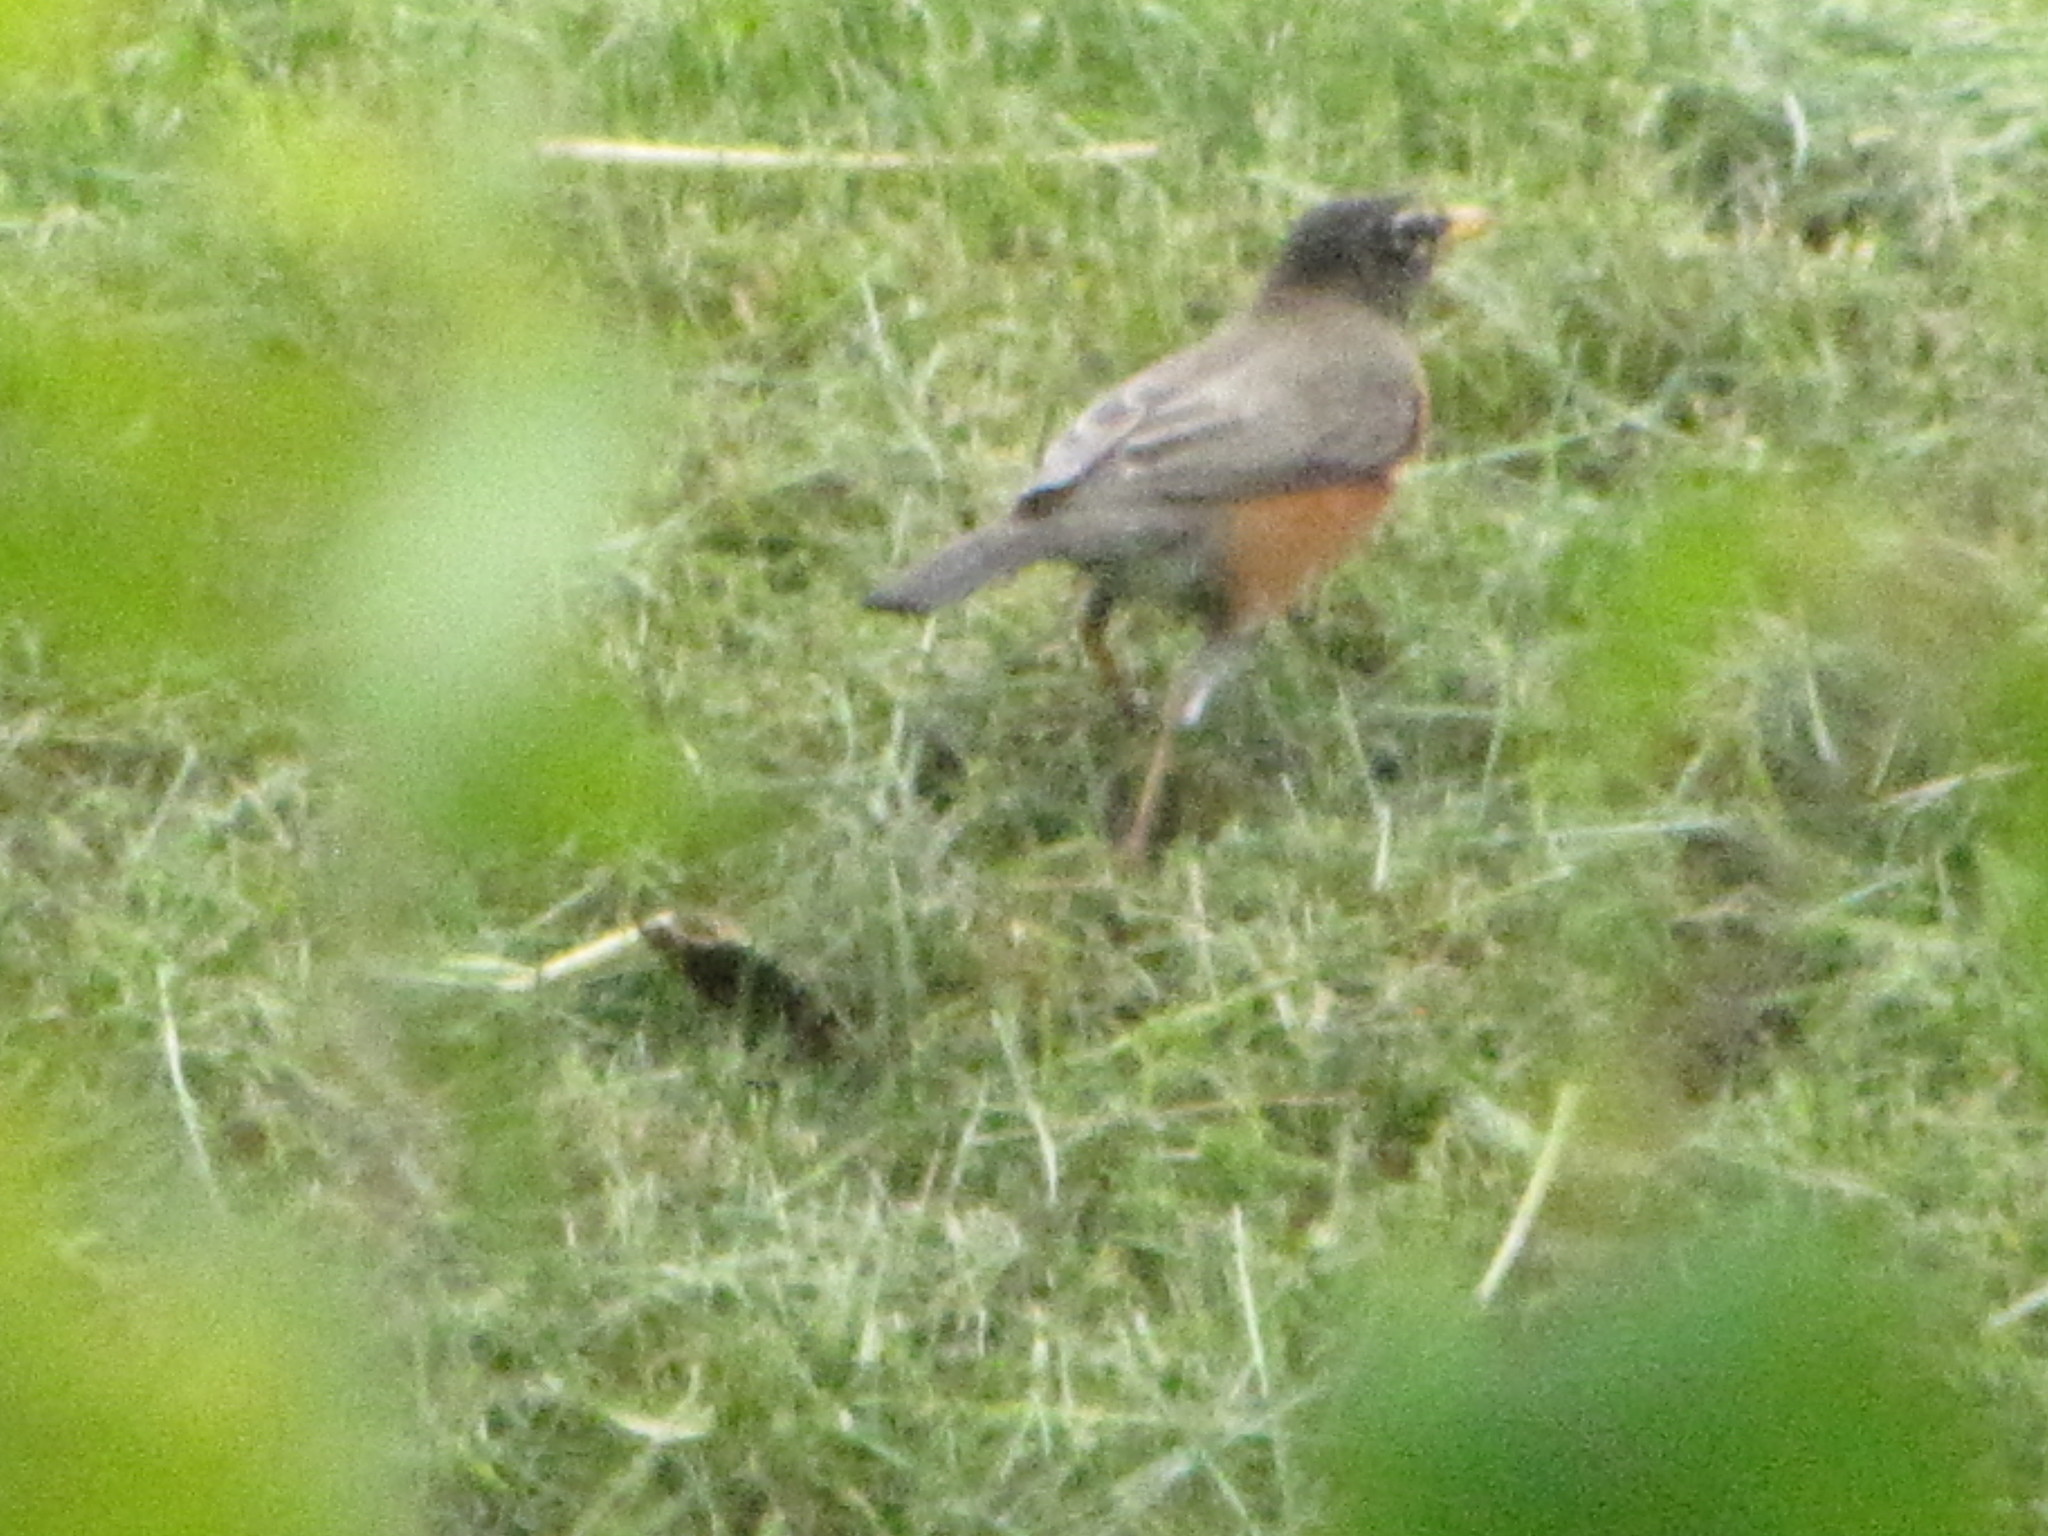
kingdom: Animalia
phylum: Chordata
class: Aves
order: Passeriformes
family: Turdidae
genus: Turdus
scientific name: Turdus migratorius
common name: American robin
